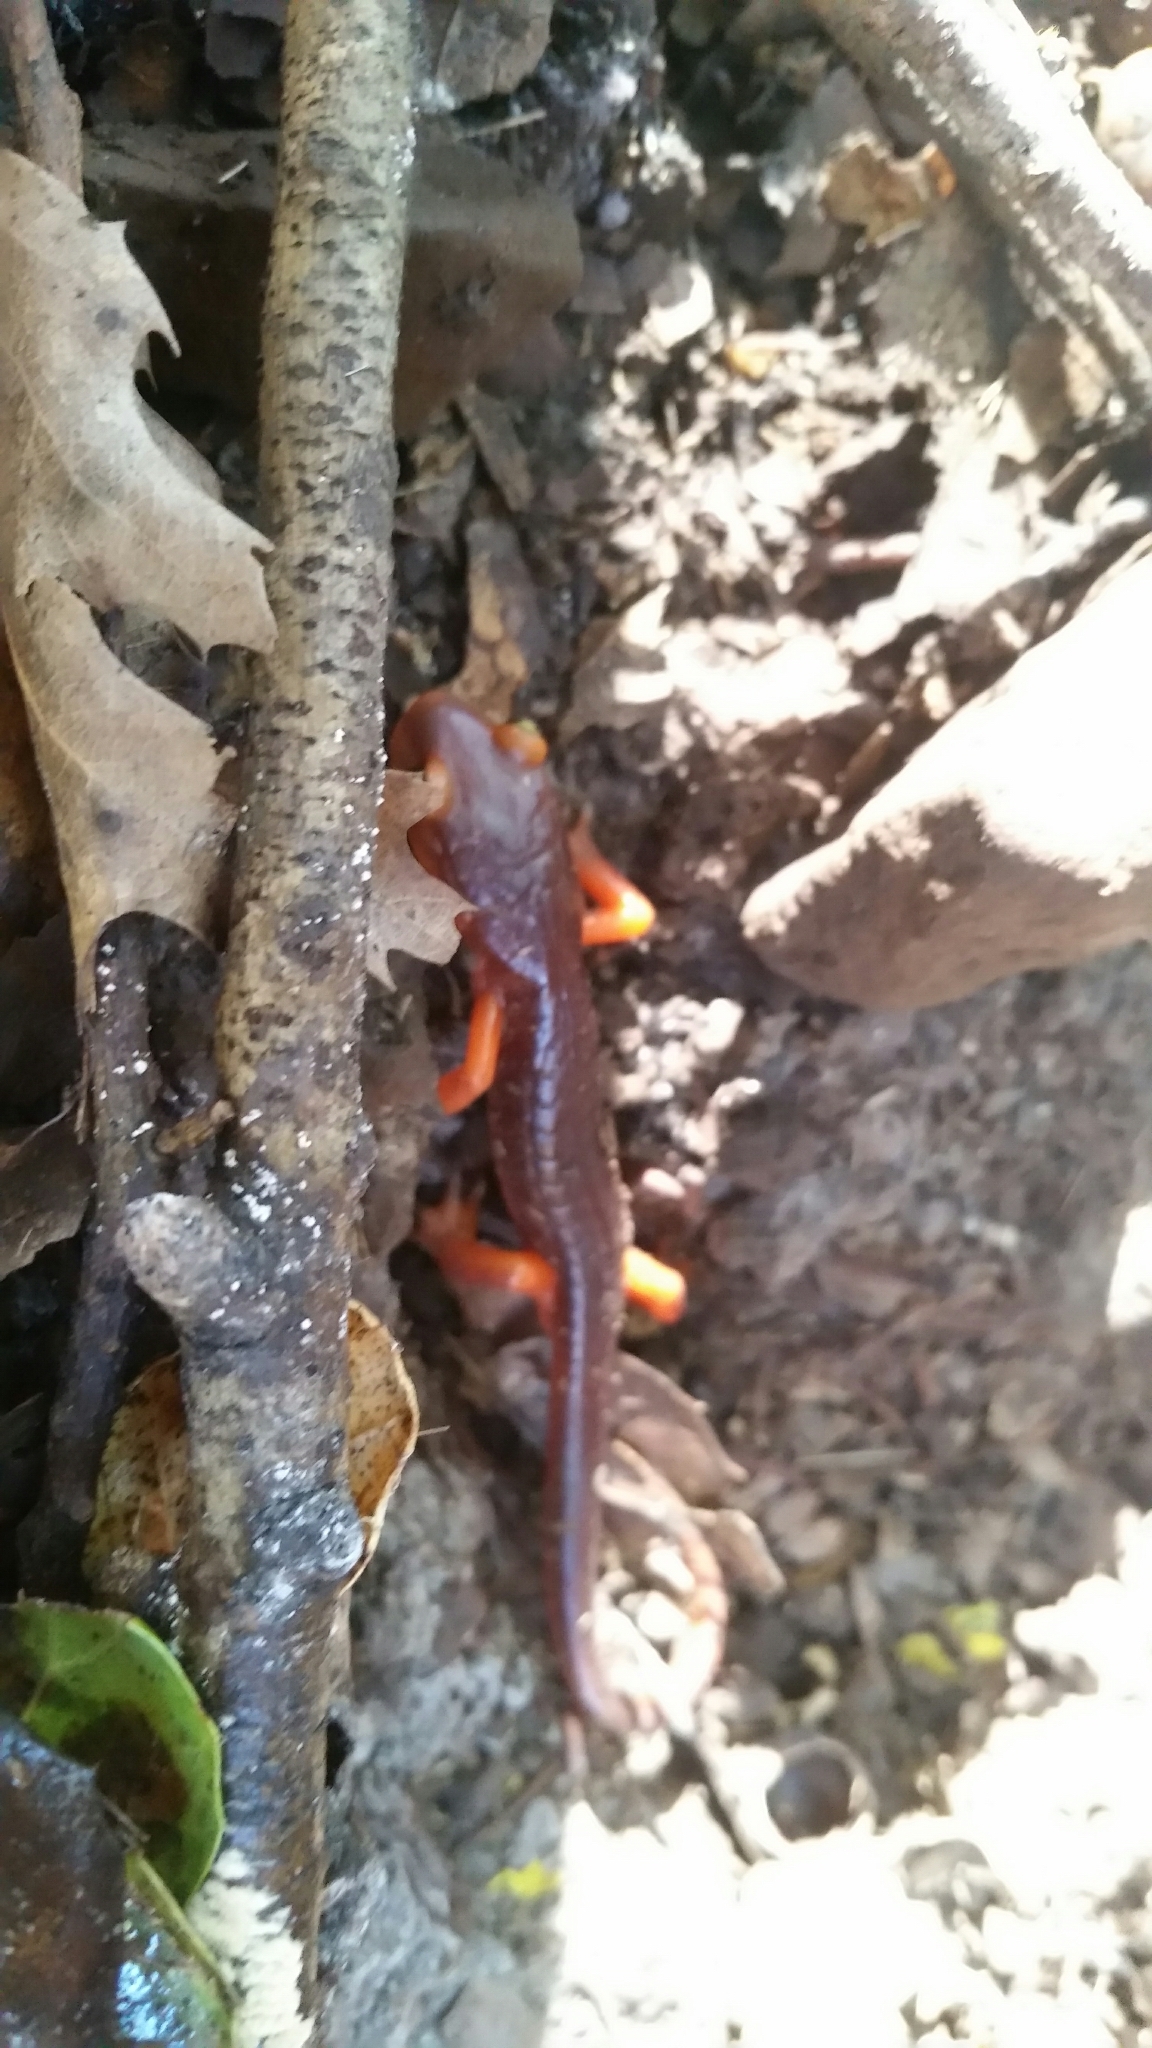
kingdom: Animalia
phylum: Chordata
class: Amphibia
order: Caudata
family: Plethodontidae
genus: Ensatina
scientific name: Ensatina eschscholtzii
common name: Ensatina
